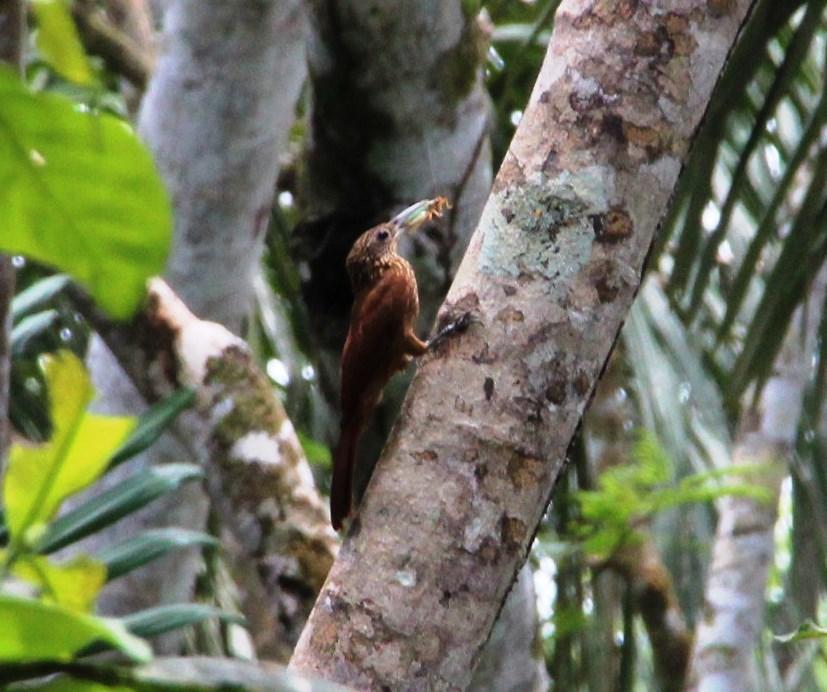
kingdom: Animalia
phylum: Chordata
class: Aves
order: Passeriformes
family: Furnariidae
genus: Xiphorhynchus
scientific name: Xiphorhynchus guttatus
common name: Buff-throated woodcreeper
